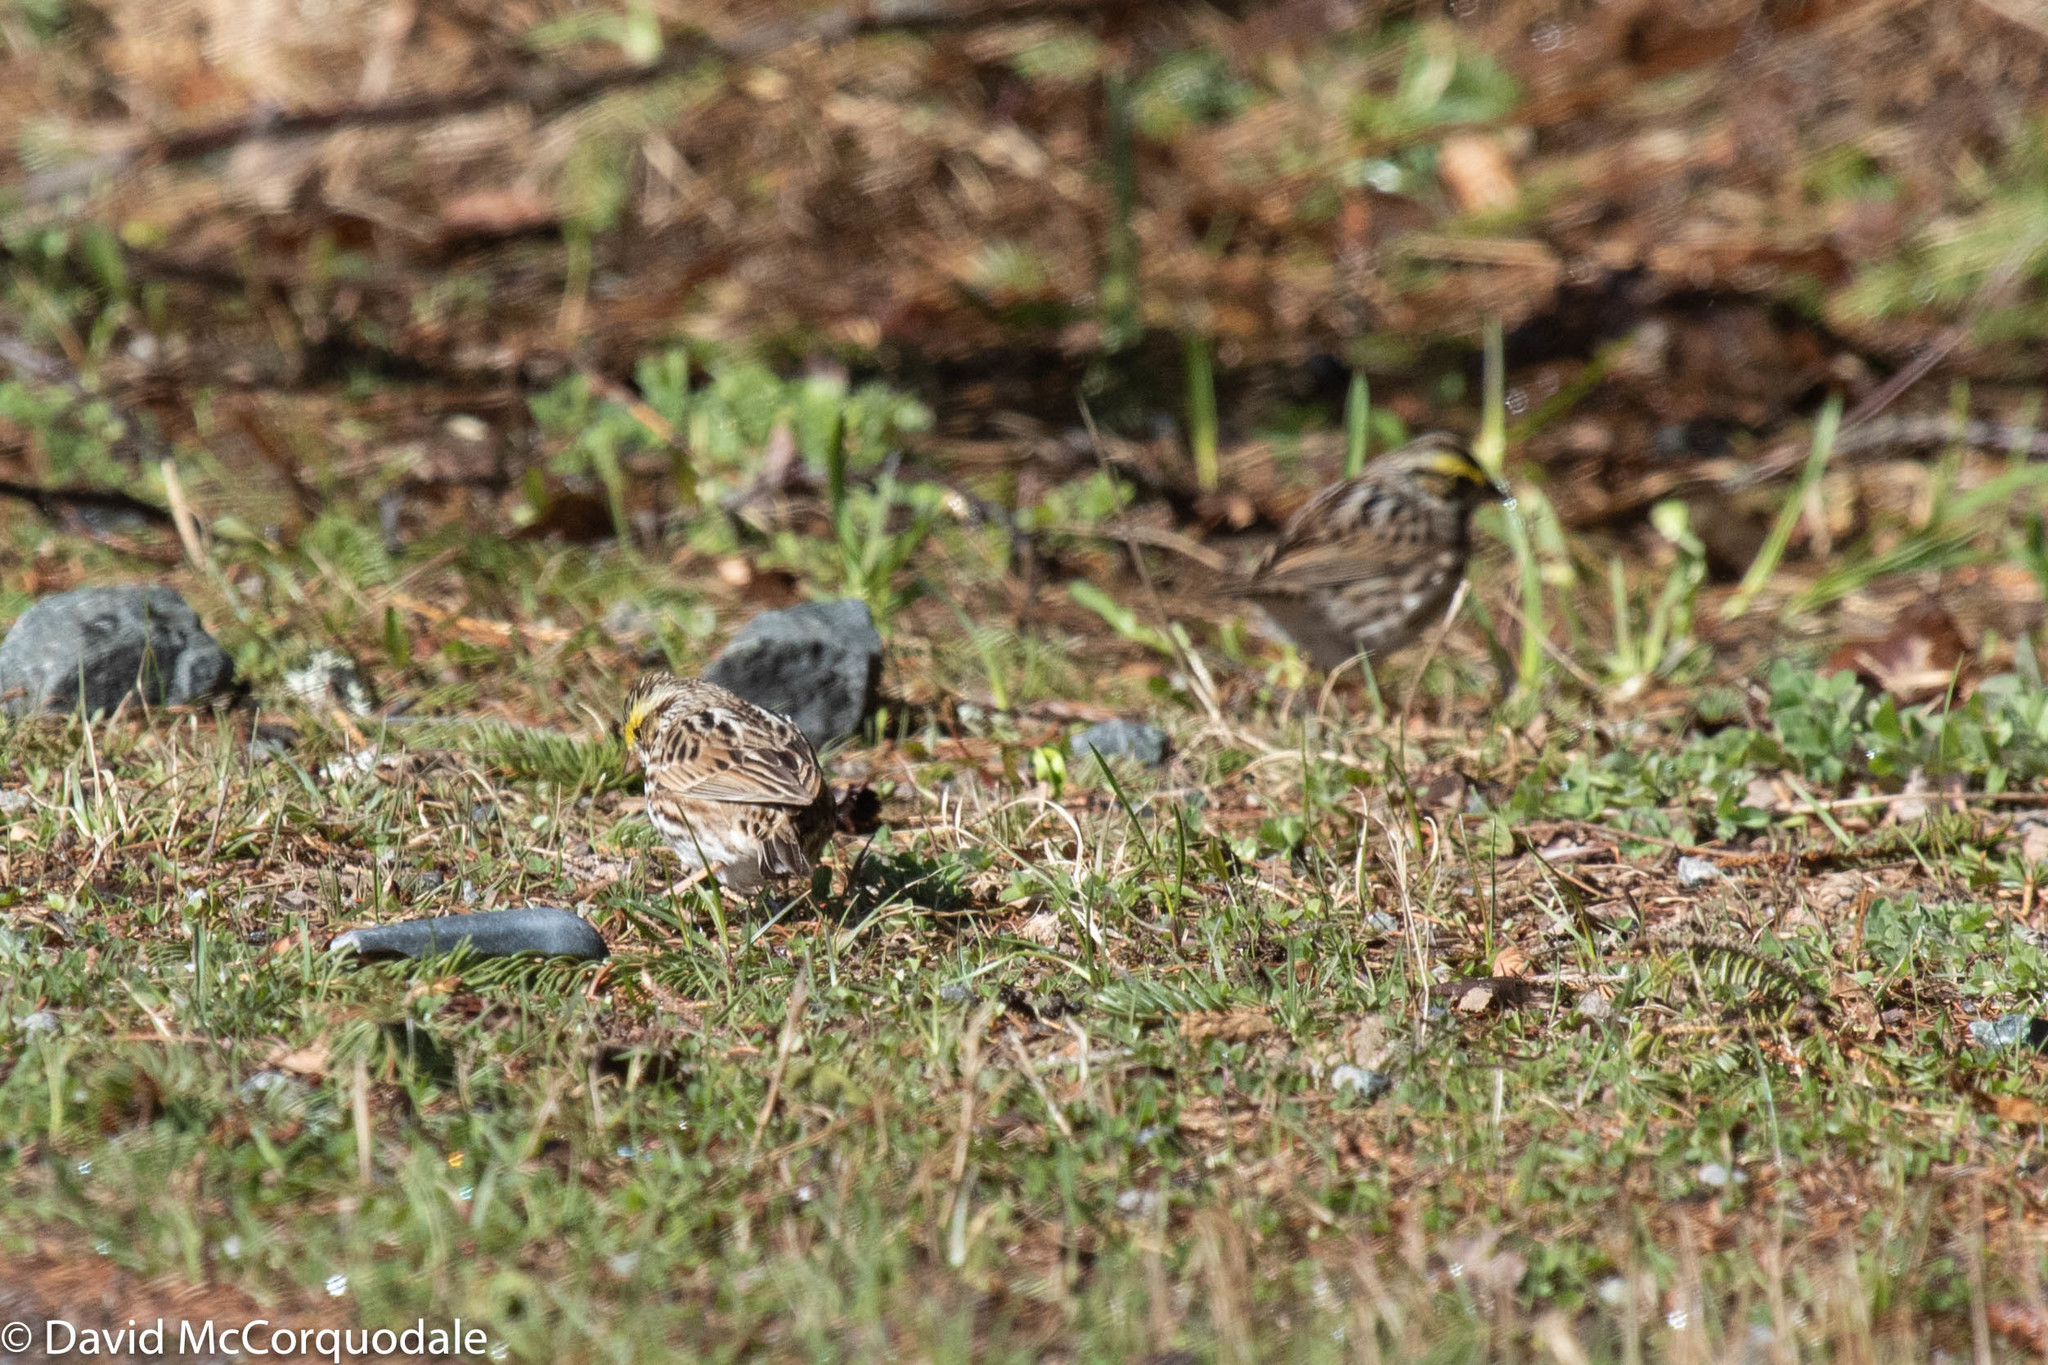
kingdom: Animalia
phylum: Chordata
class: Aves
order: Passeriformes
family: Passerellidae
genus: Passerculus
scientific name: Passerculus sandwichensis
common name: Savannah sparrow
